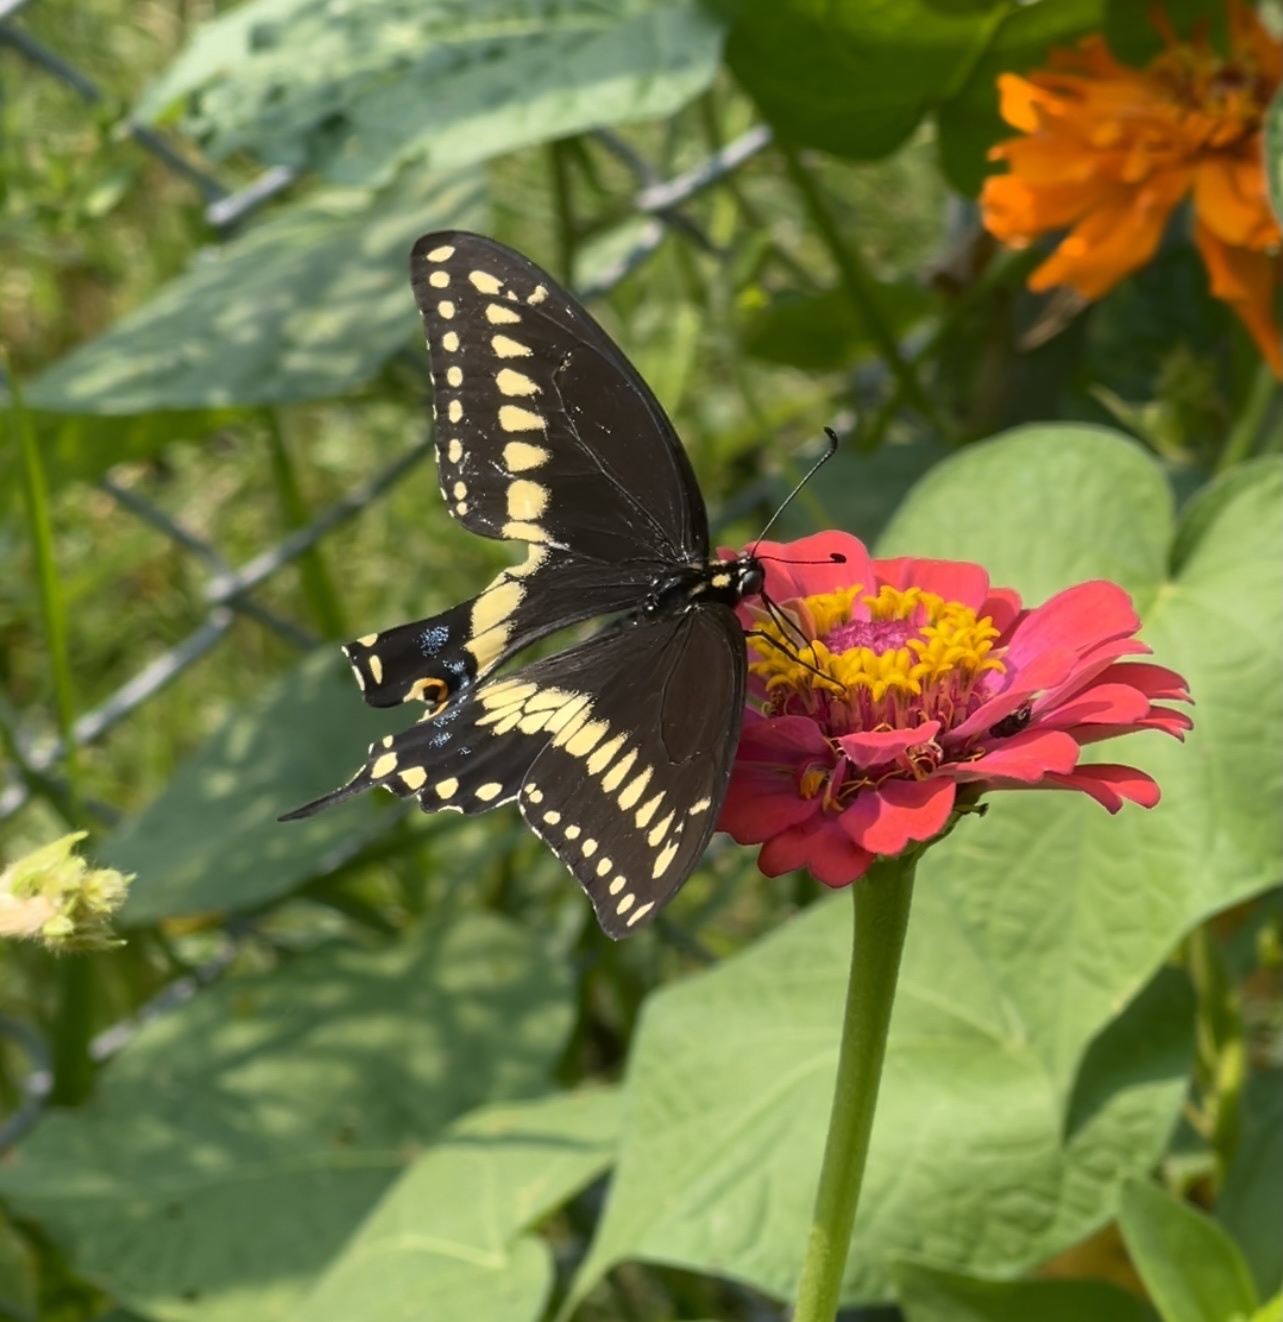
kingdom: Animalia
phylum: Arthropoda
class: Insecta
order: Lepidoptera
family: Papilionidae
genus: Papilio
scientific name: Papilio polyxenes
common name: Black swallowtail
